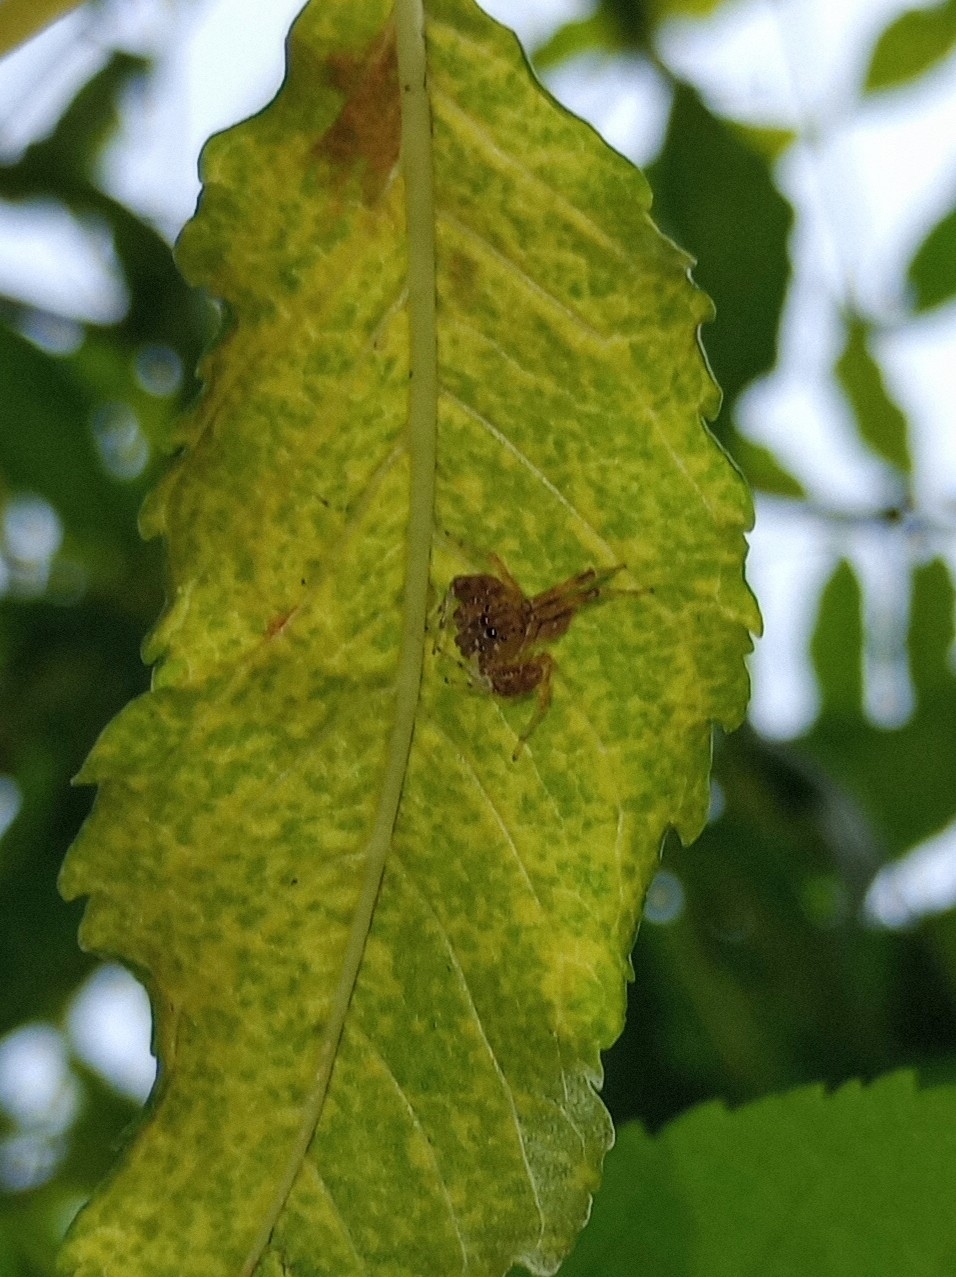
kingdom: Animalia
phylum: Arthropoda
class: Arachnida
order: Araneae
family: Salticidae
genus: Brettus
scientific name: Brettus cingulatus
